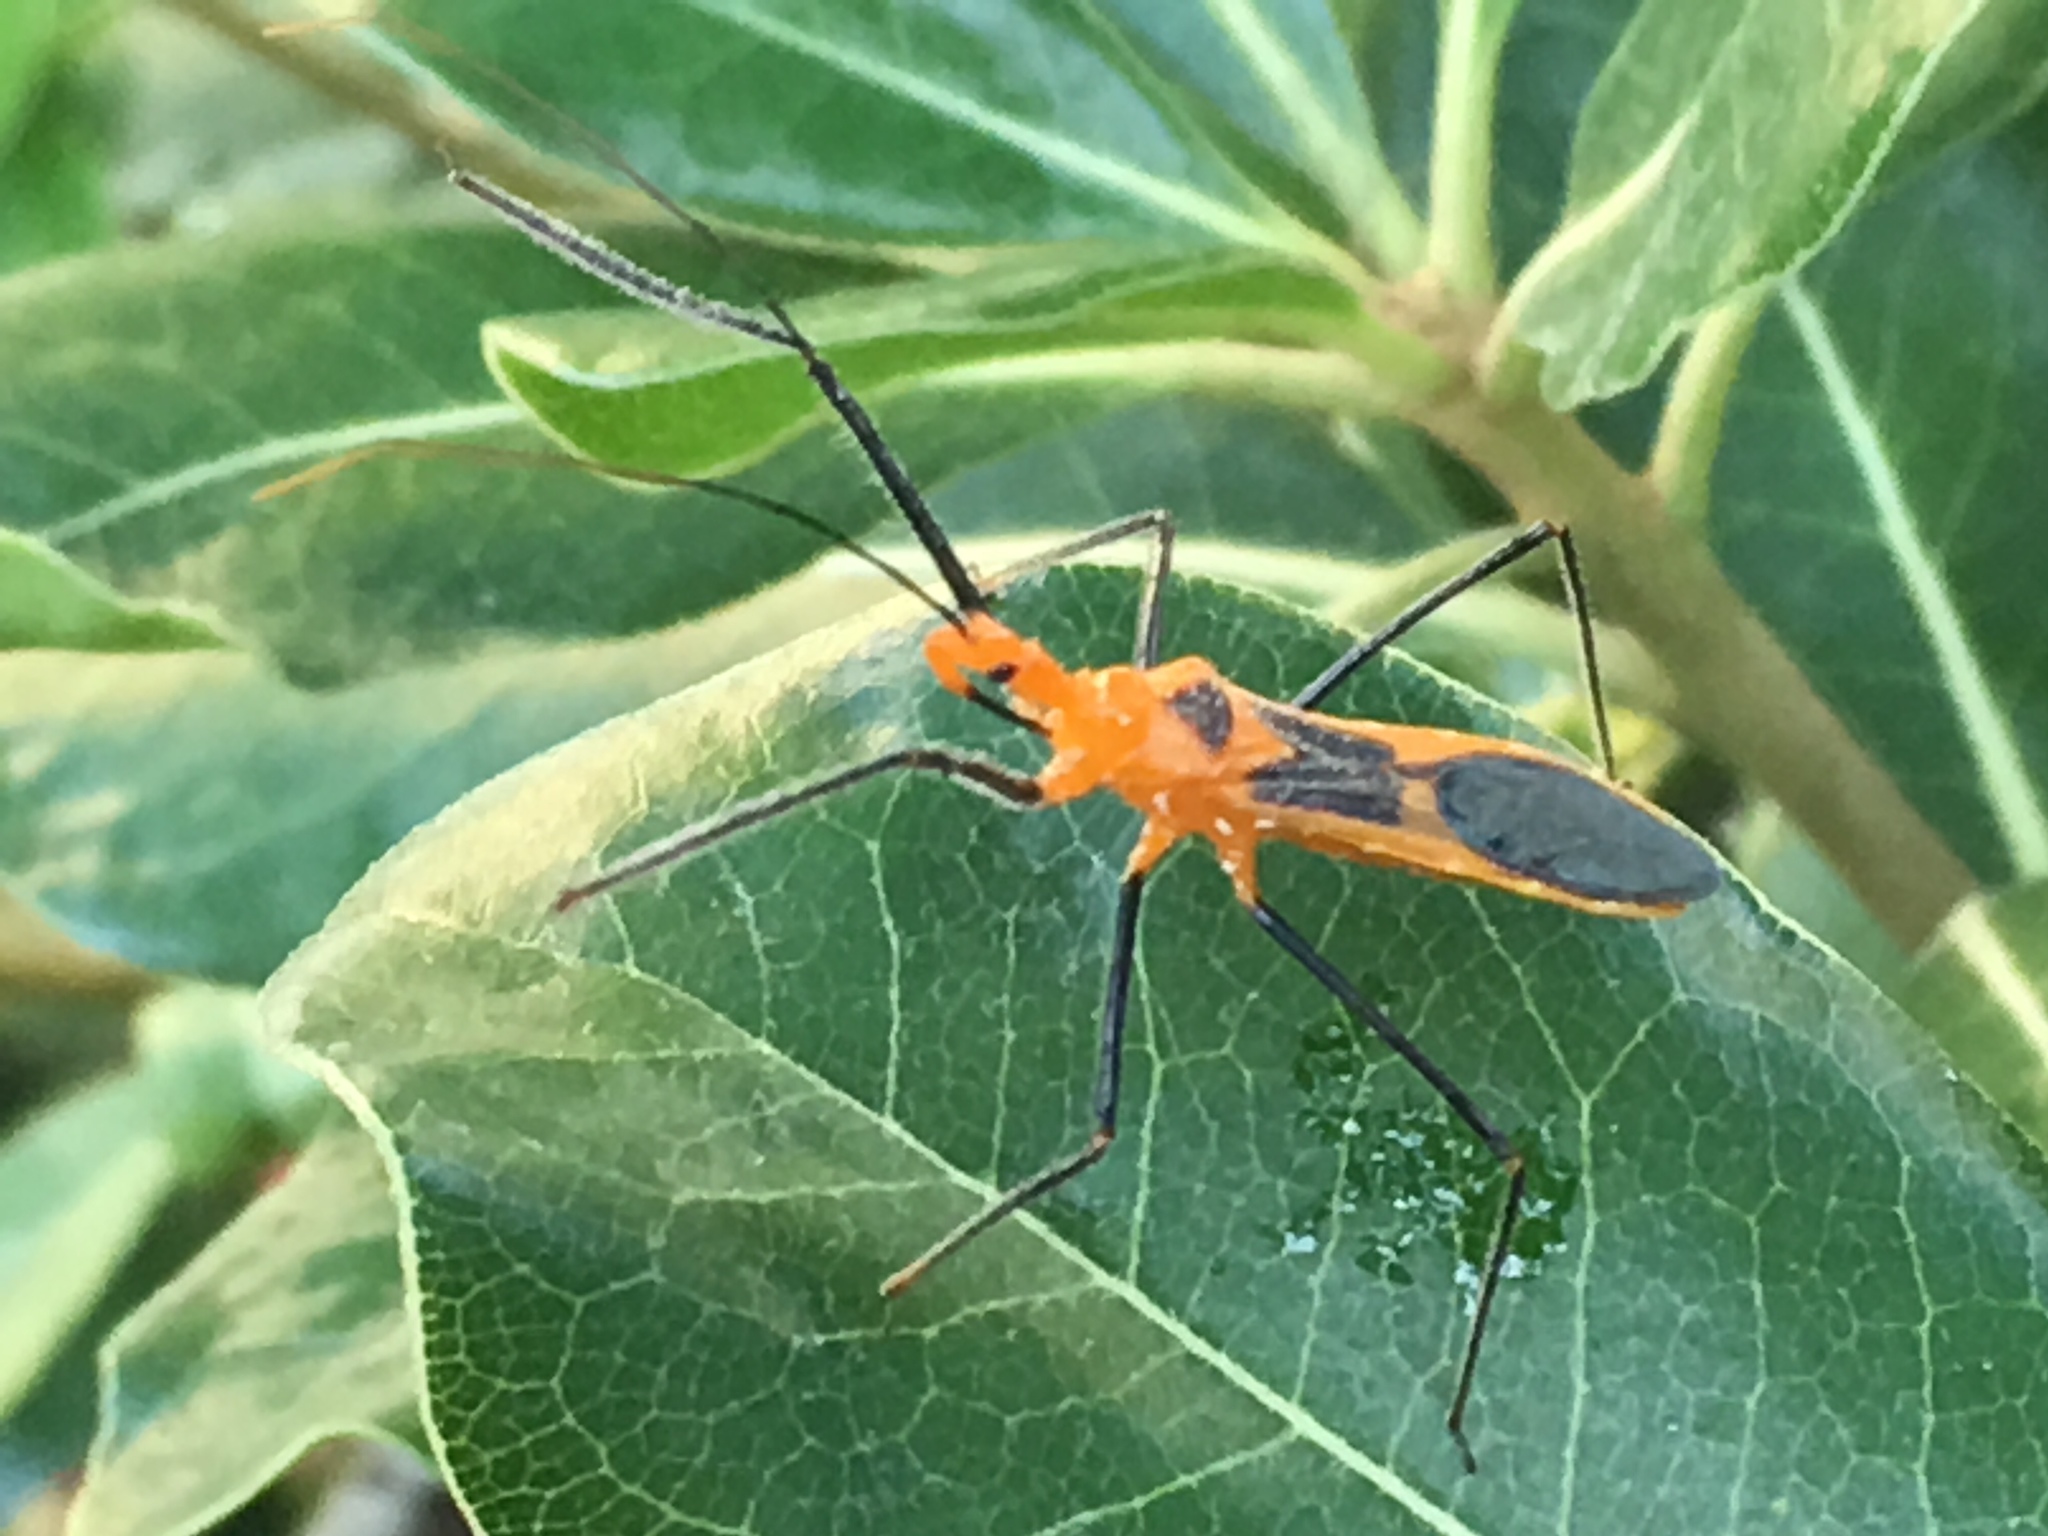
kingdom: Animalia
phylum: Arthropoda
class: Insecta
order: Hemiptera
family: Reduviidae
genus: Zelus
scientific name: Zelus longipes
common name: Milkweed assassin bug
